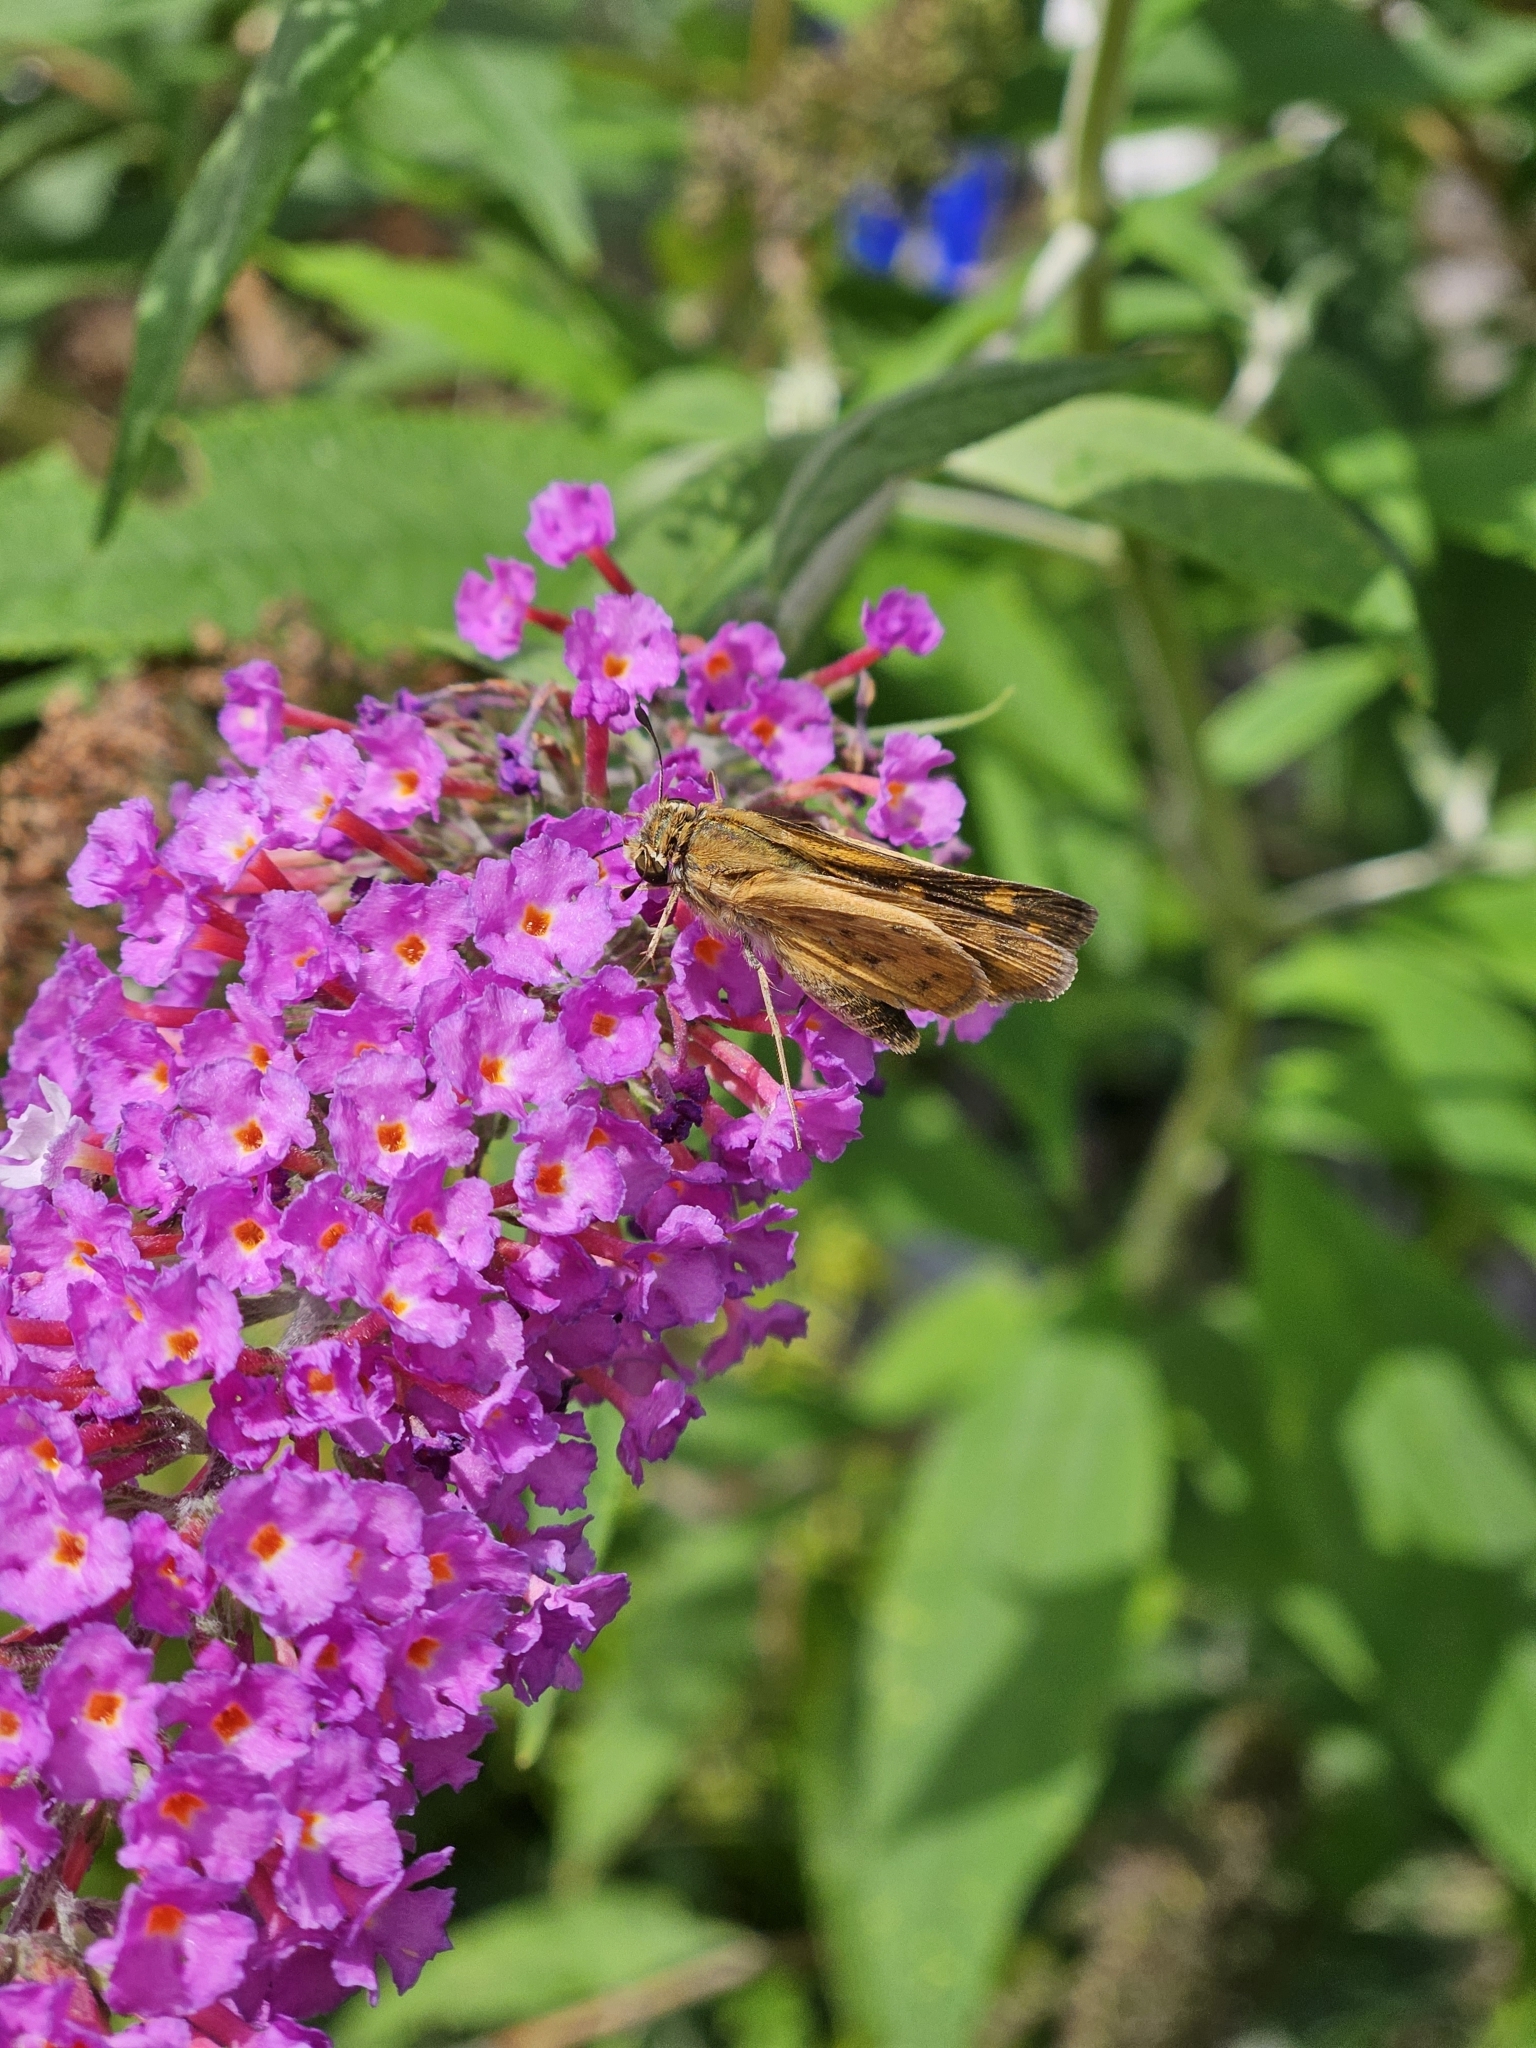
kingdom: Animalia
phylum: Arthropoda
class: Insecta
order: Lepidoptera
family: Hesperiidae
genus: Hylephila
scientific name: Hylephila phyleus
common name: Fiery skipper
